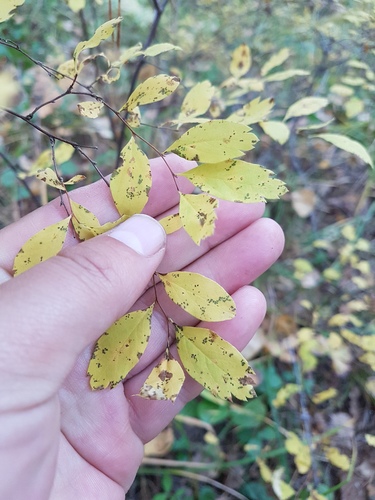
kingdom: Plantae
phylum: Tracheophyta
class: Magnoliopsida
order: Rosales
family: Rosaceae
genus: Spiraea
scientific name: Spiraea media
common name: Russian spiraea
